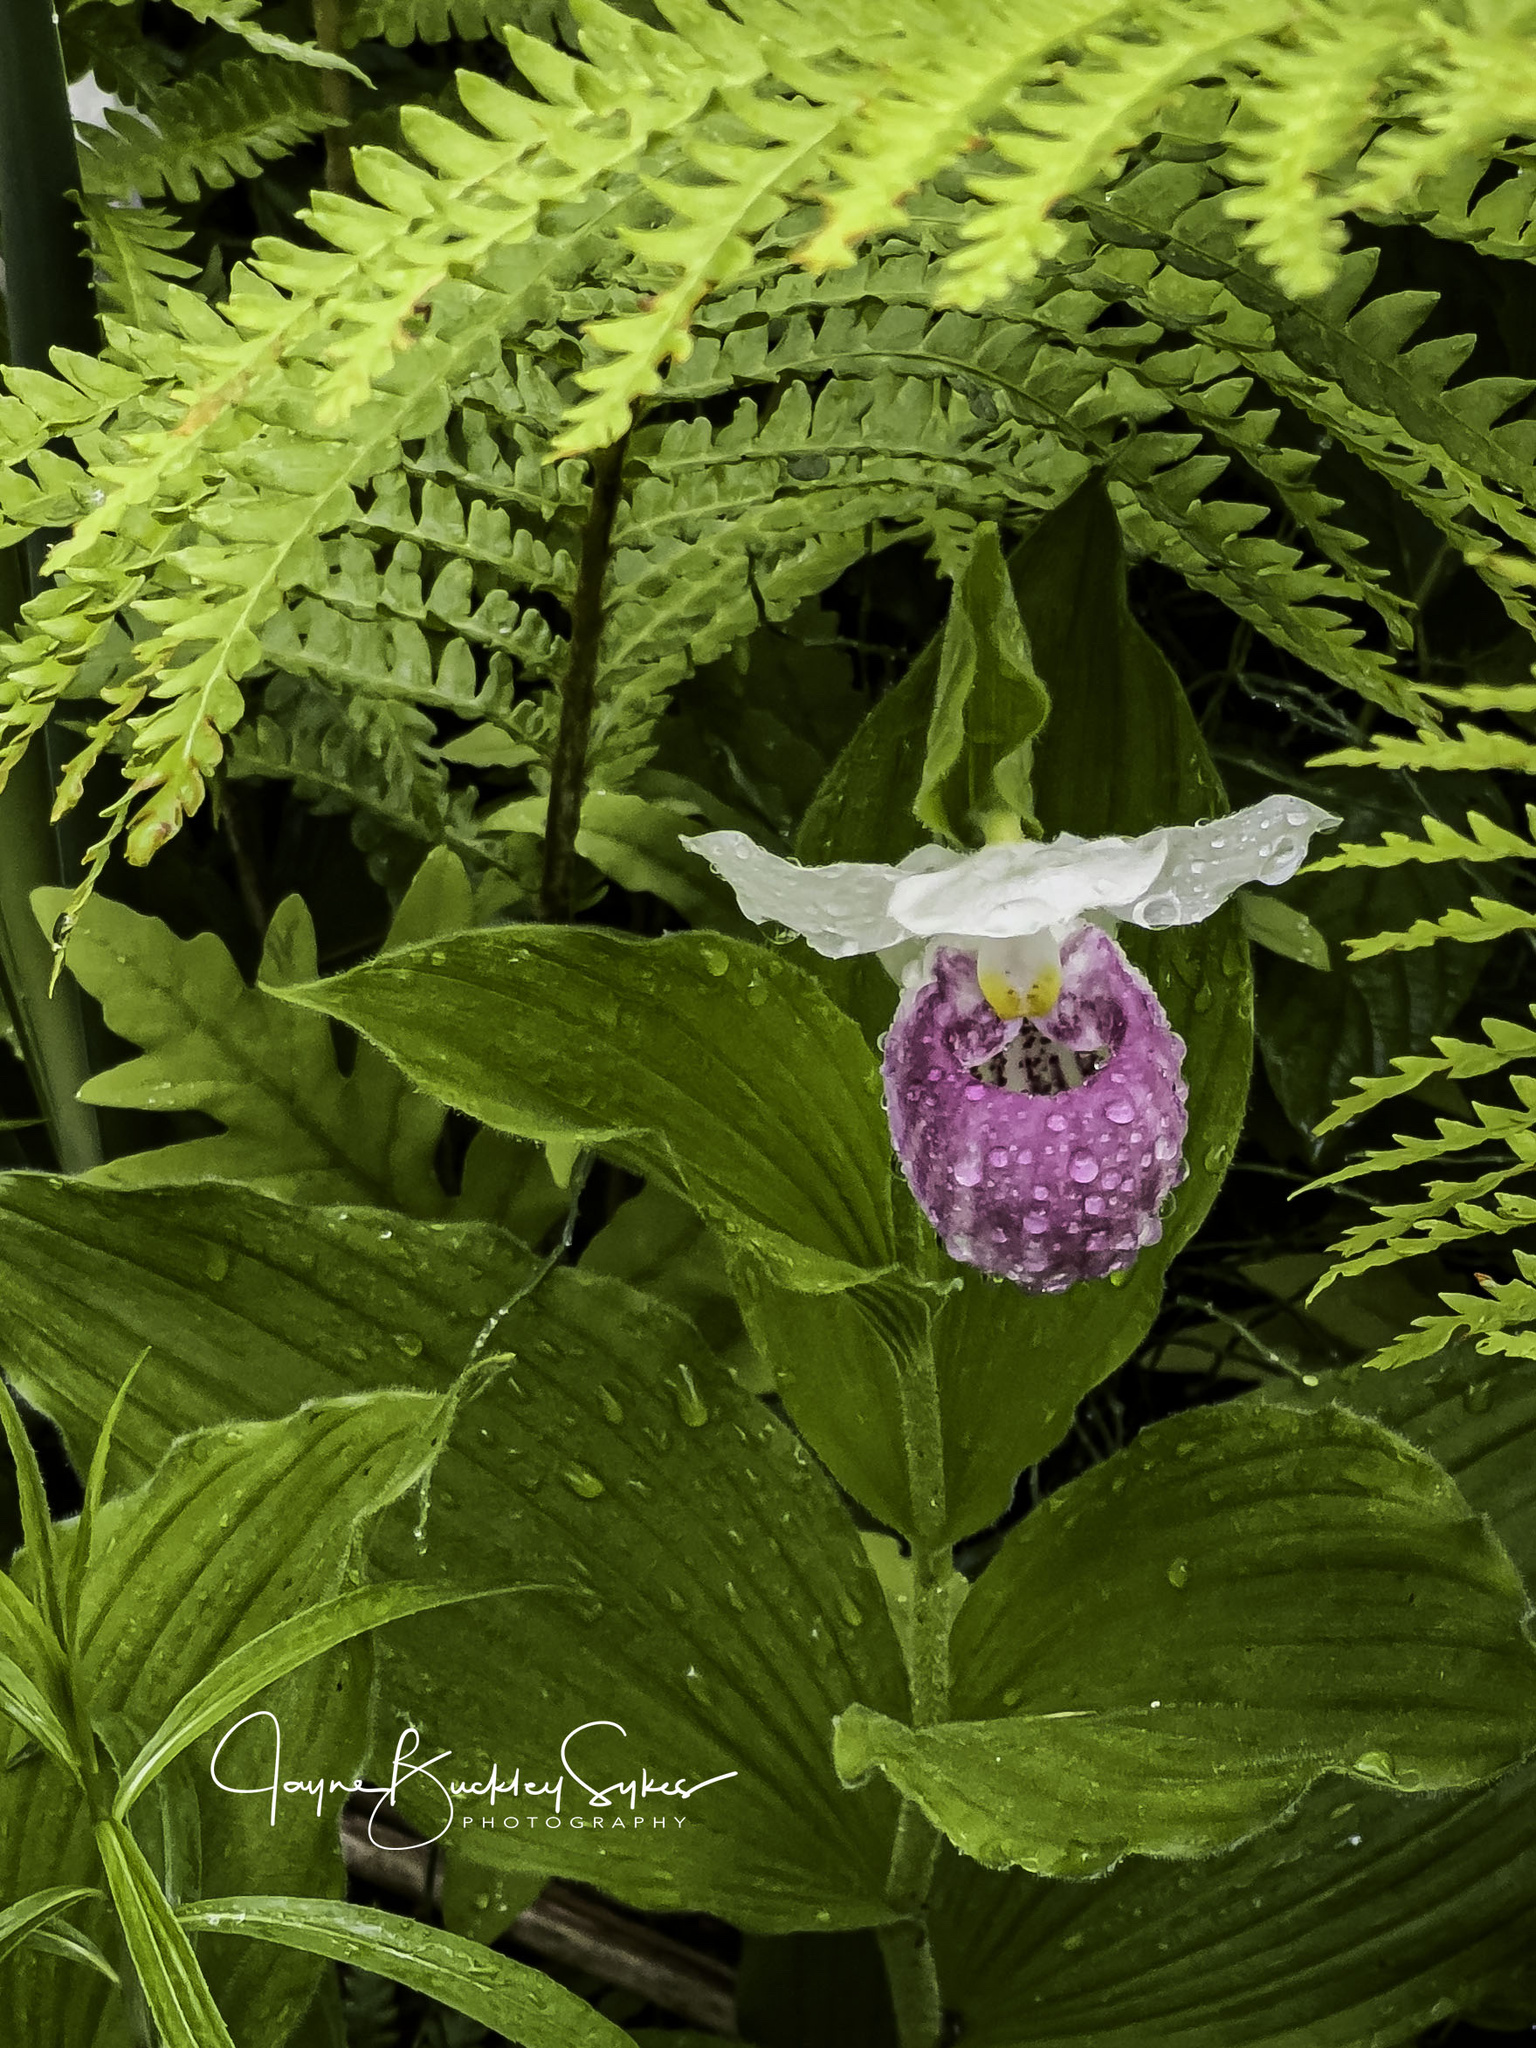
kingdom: Plantae
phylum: Tracheophyta
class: Liliopsida
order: Asparagales
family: Orchidaceae
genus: Cypripedium
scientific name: Cypripedium reginae
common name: Queen lady's-slipper
